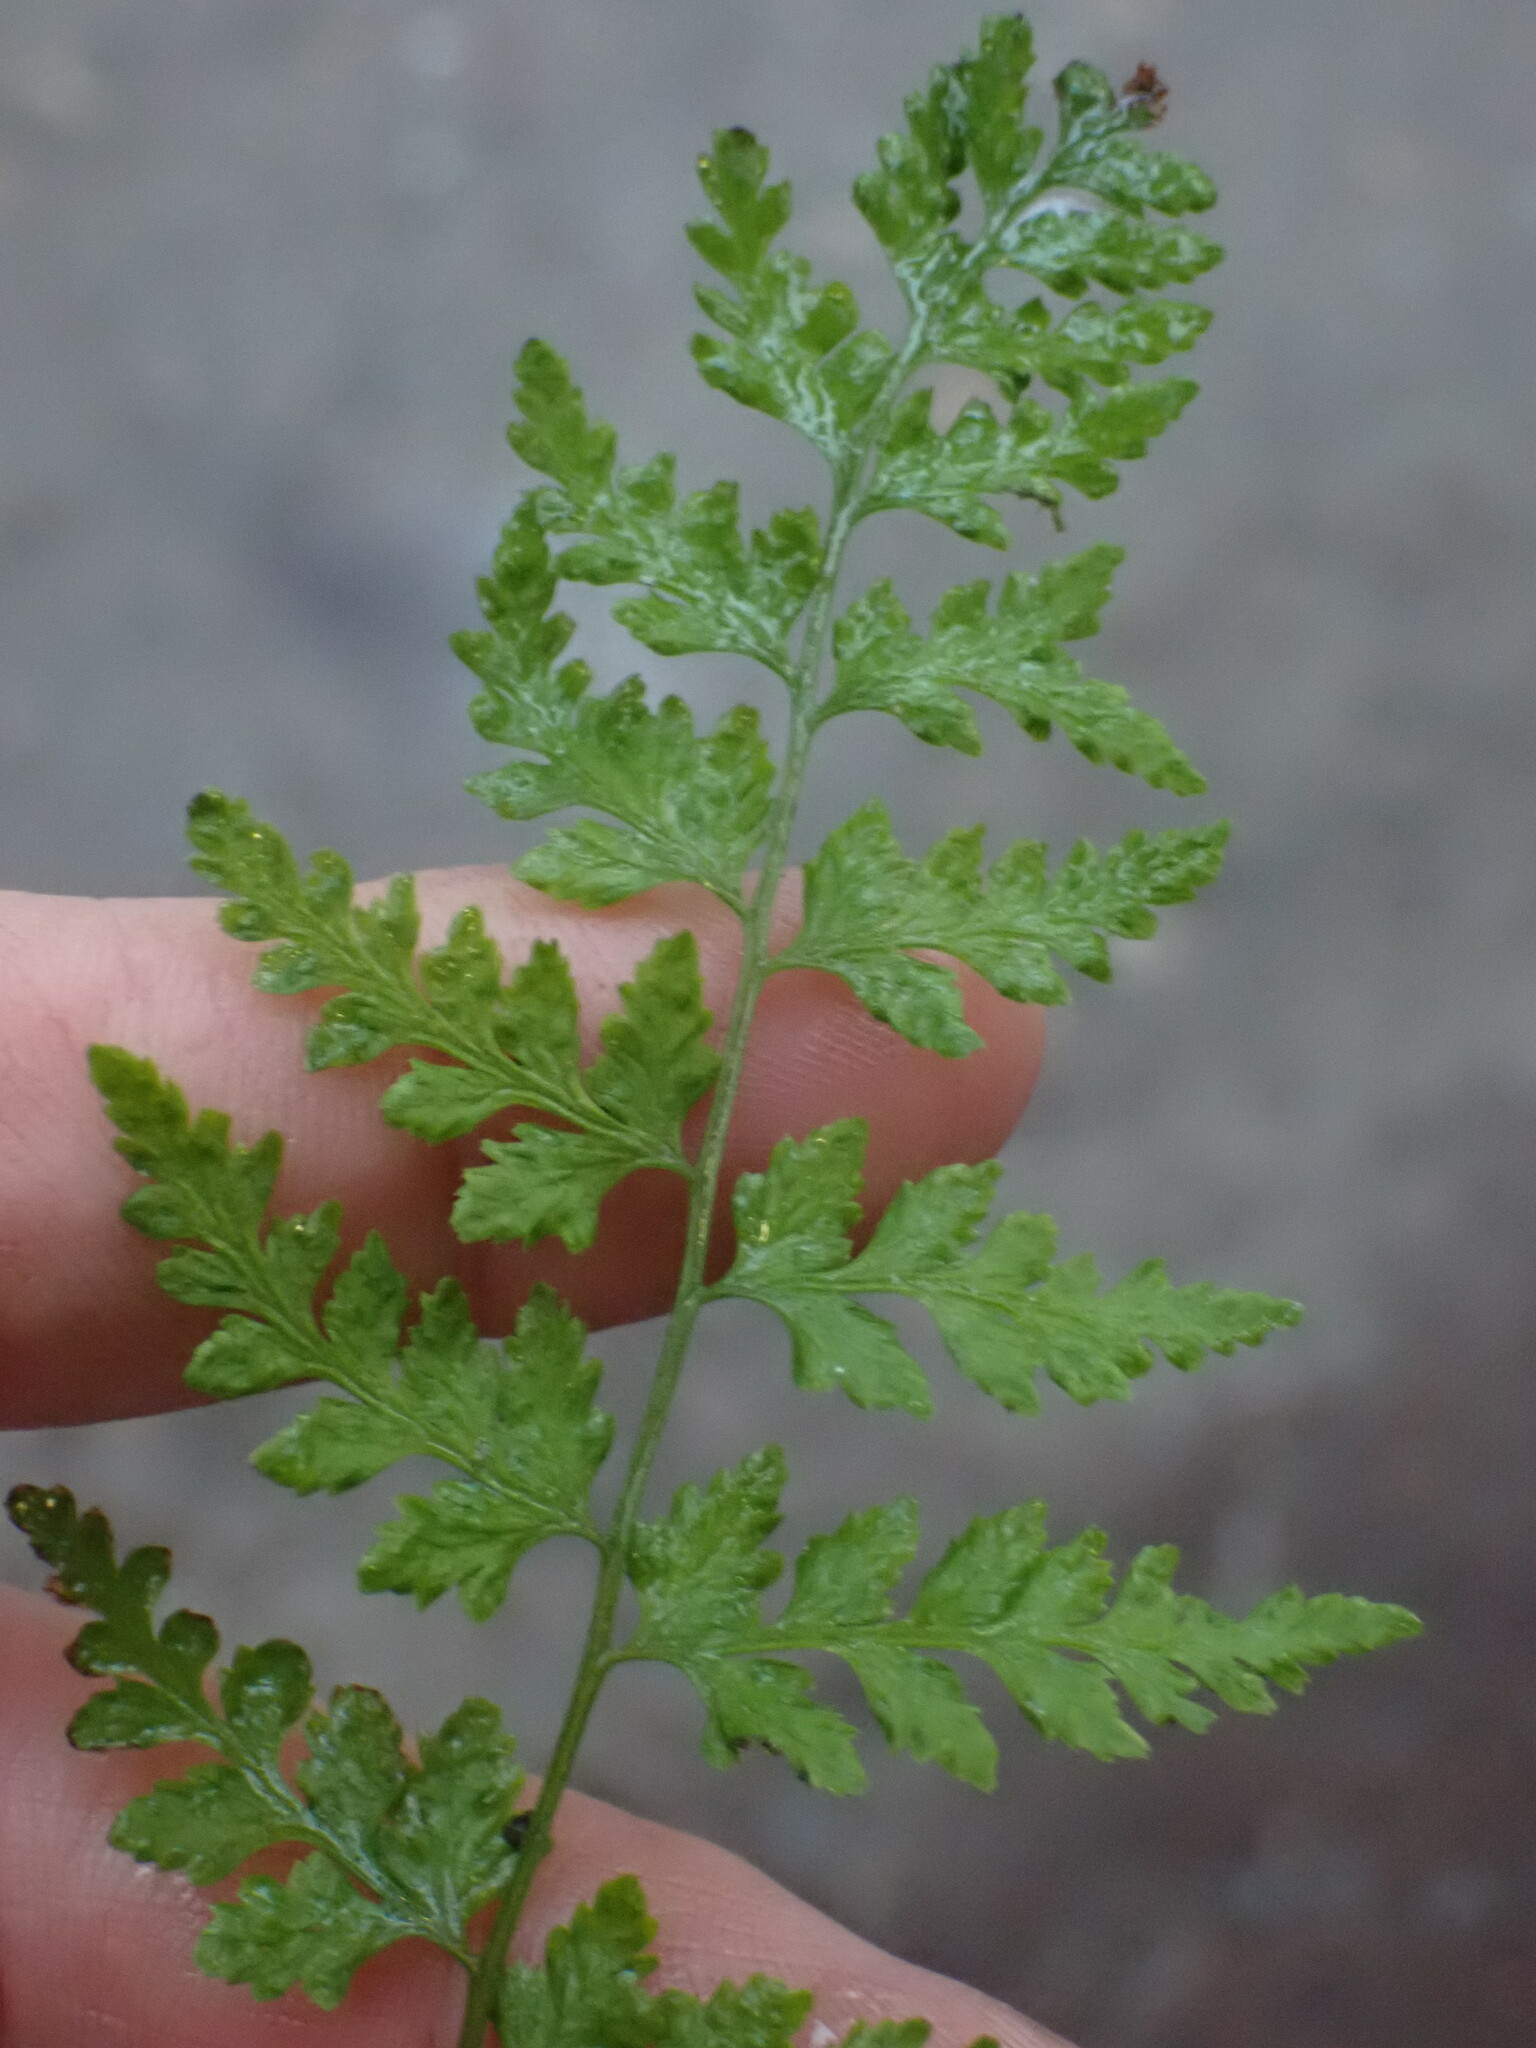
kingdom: Plantae
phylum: Tracheophyta
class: Polypodiopsida
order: Polypodiales
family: Cystopteridaceae
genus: Cystopteris
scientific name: Cystopteris fragilis
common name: Brittle bladder fern
